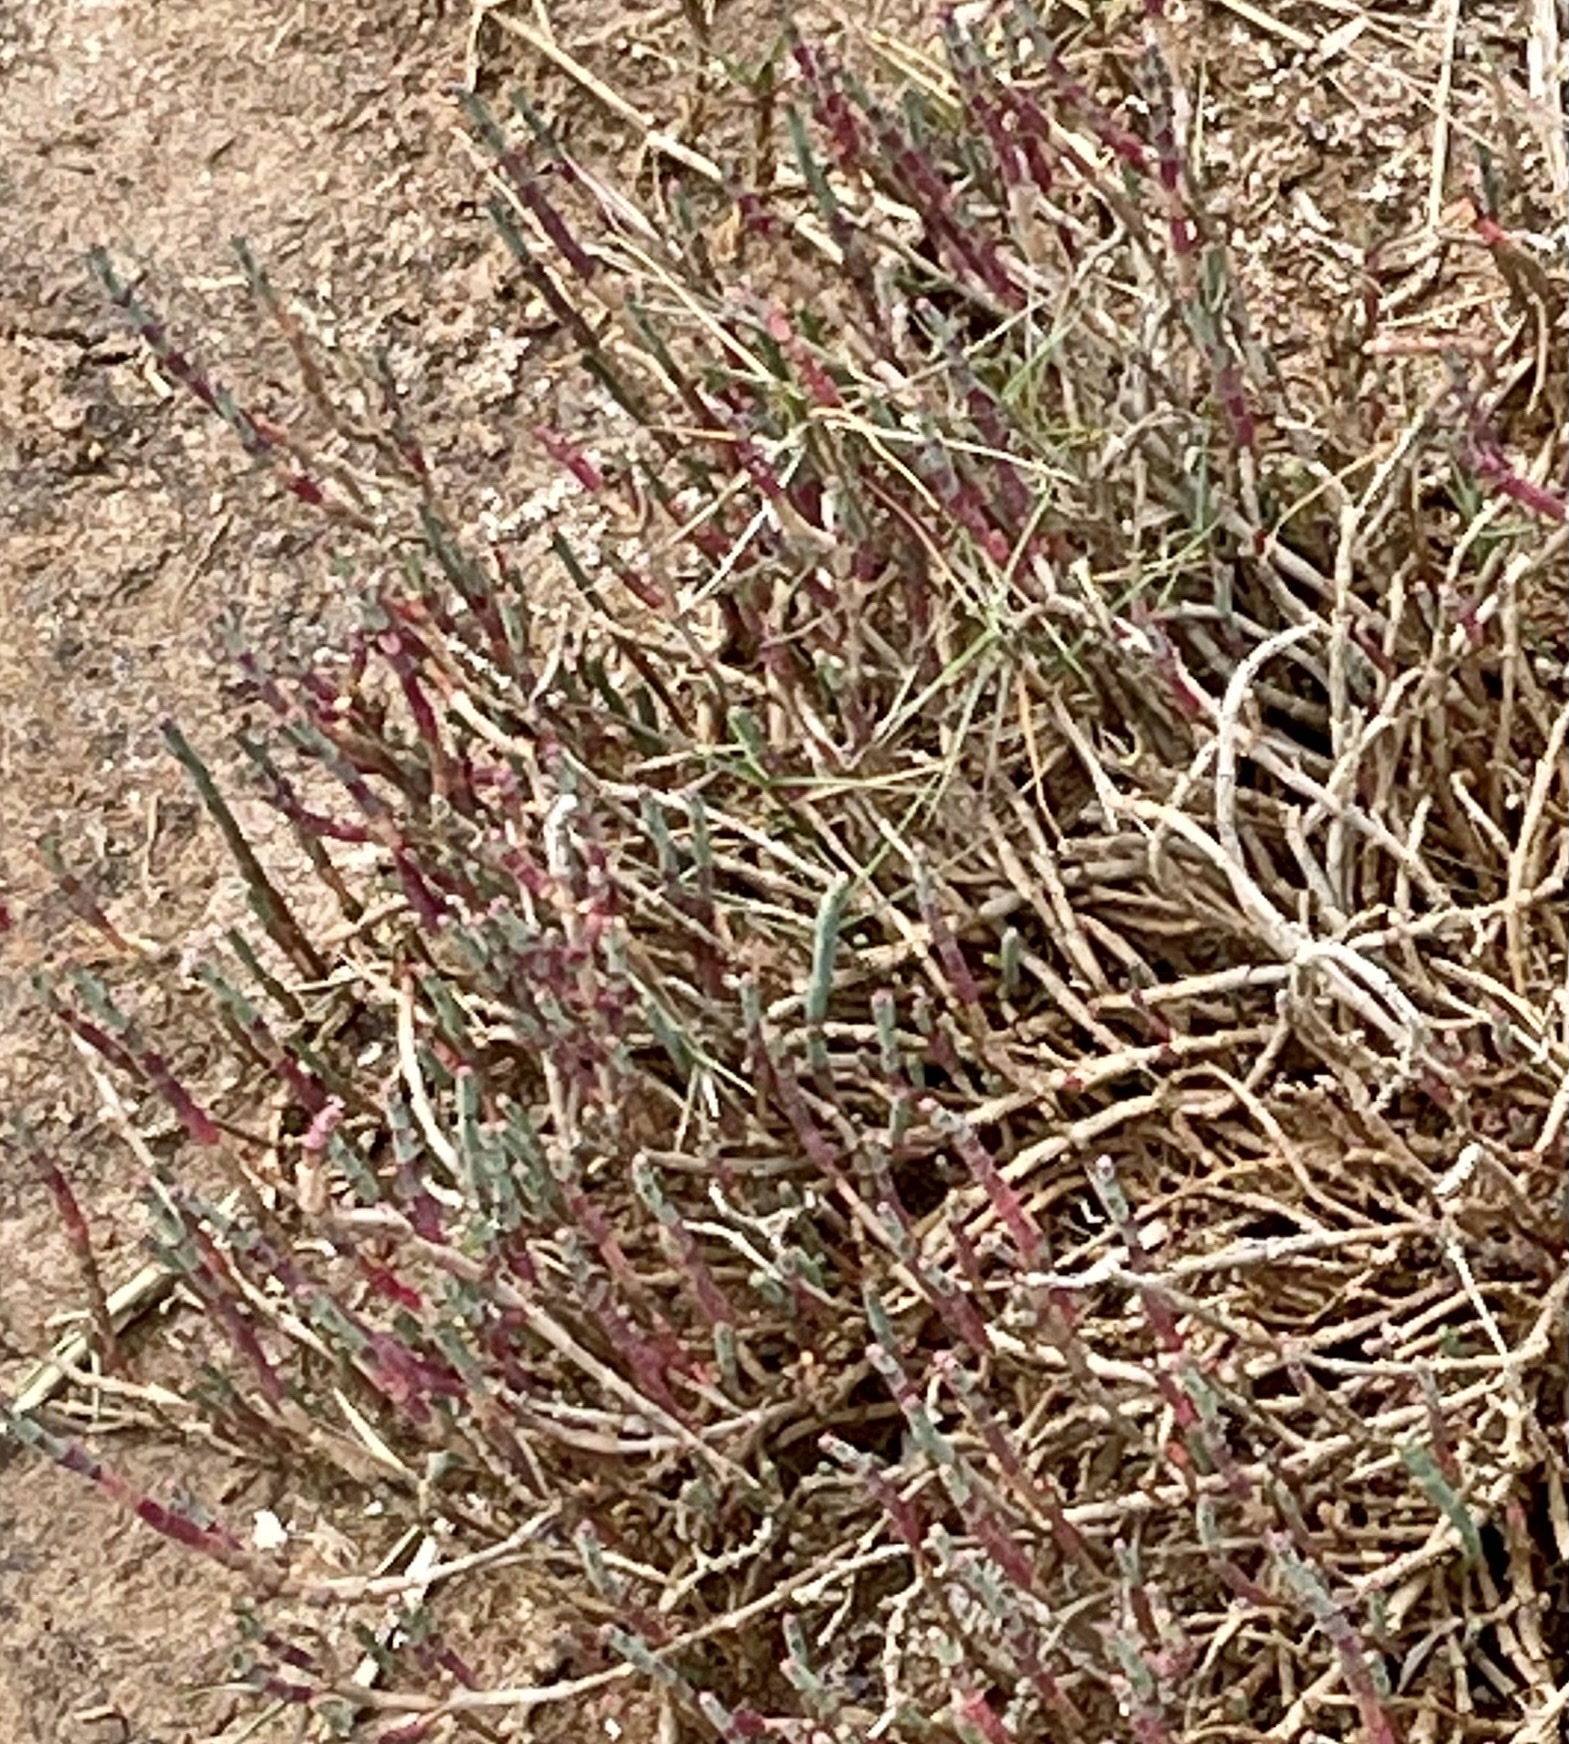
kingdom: Plantae
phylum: Tracheophyta
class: Magnoliopsida
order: Caryophyllales
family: Amaranthaceae
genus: Salicornia
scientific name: Salicornia quinqueflora
